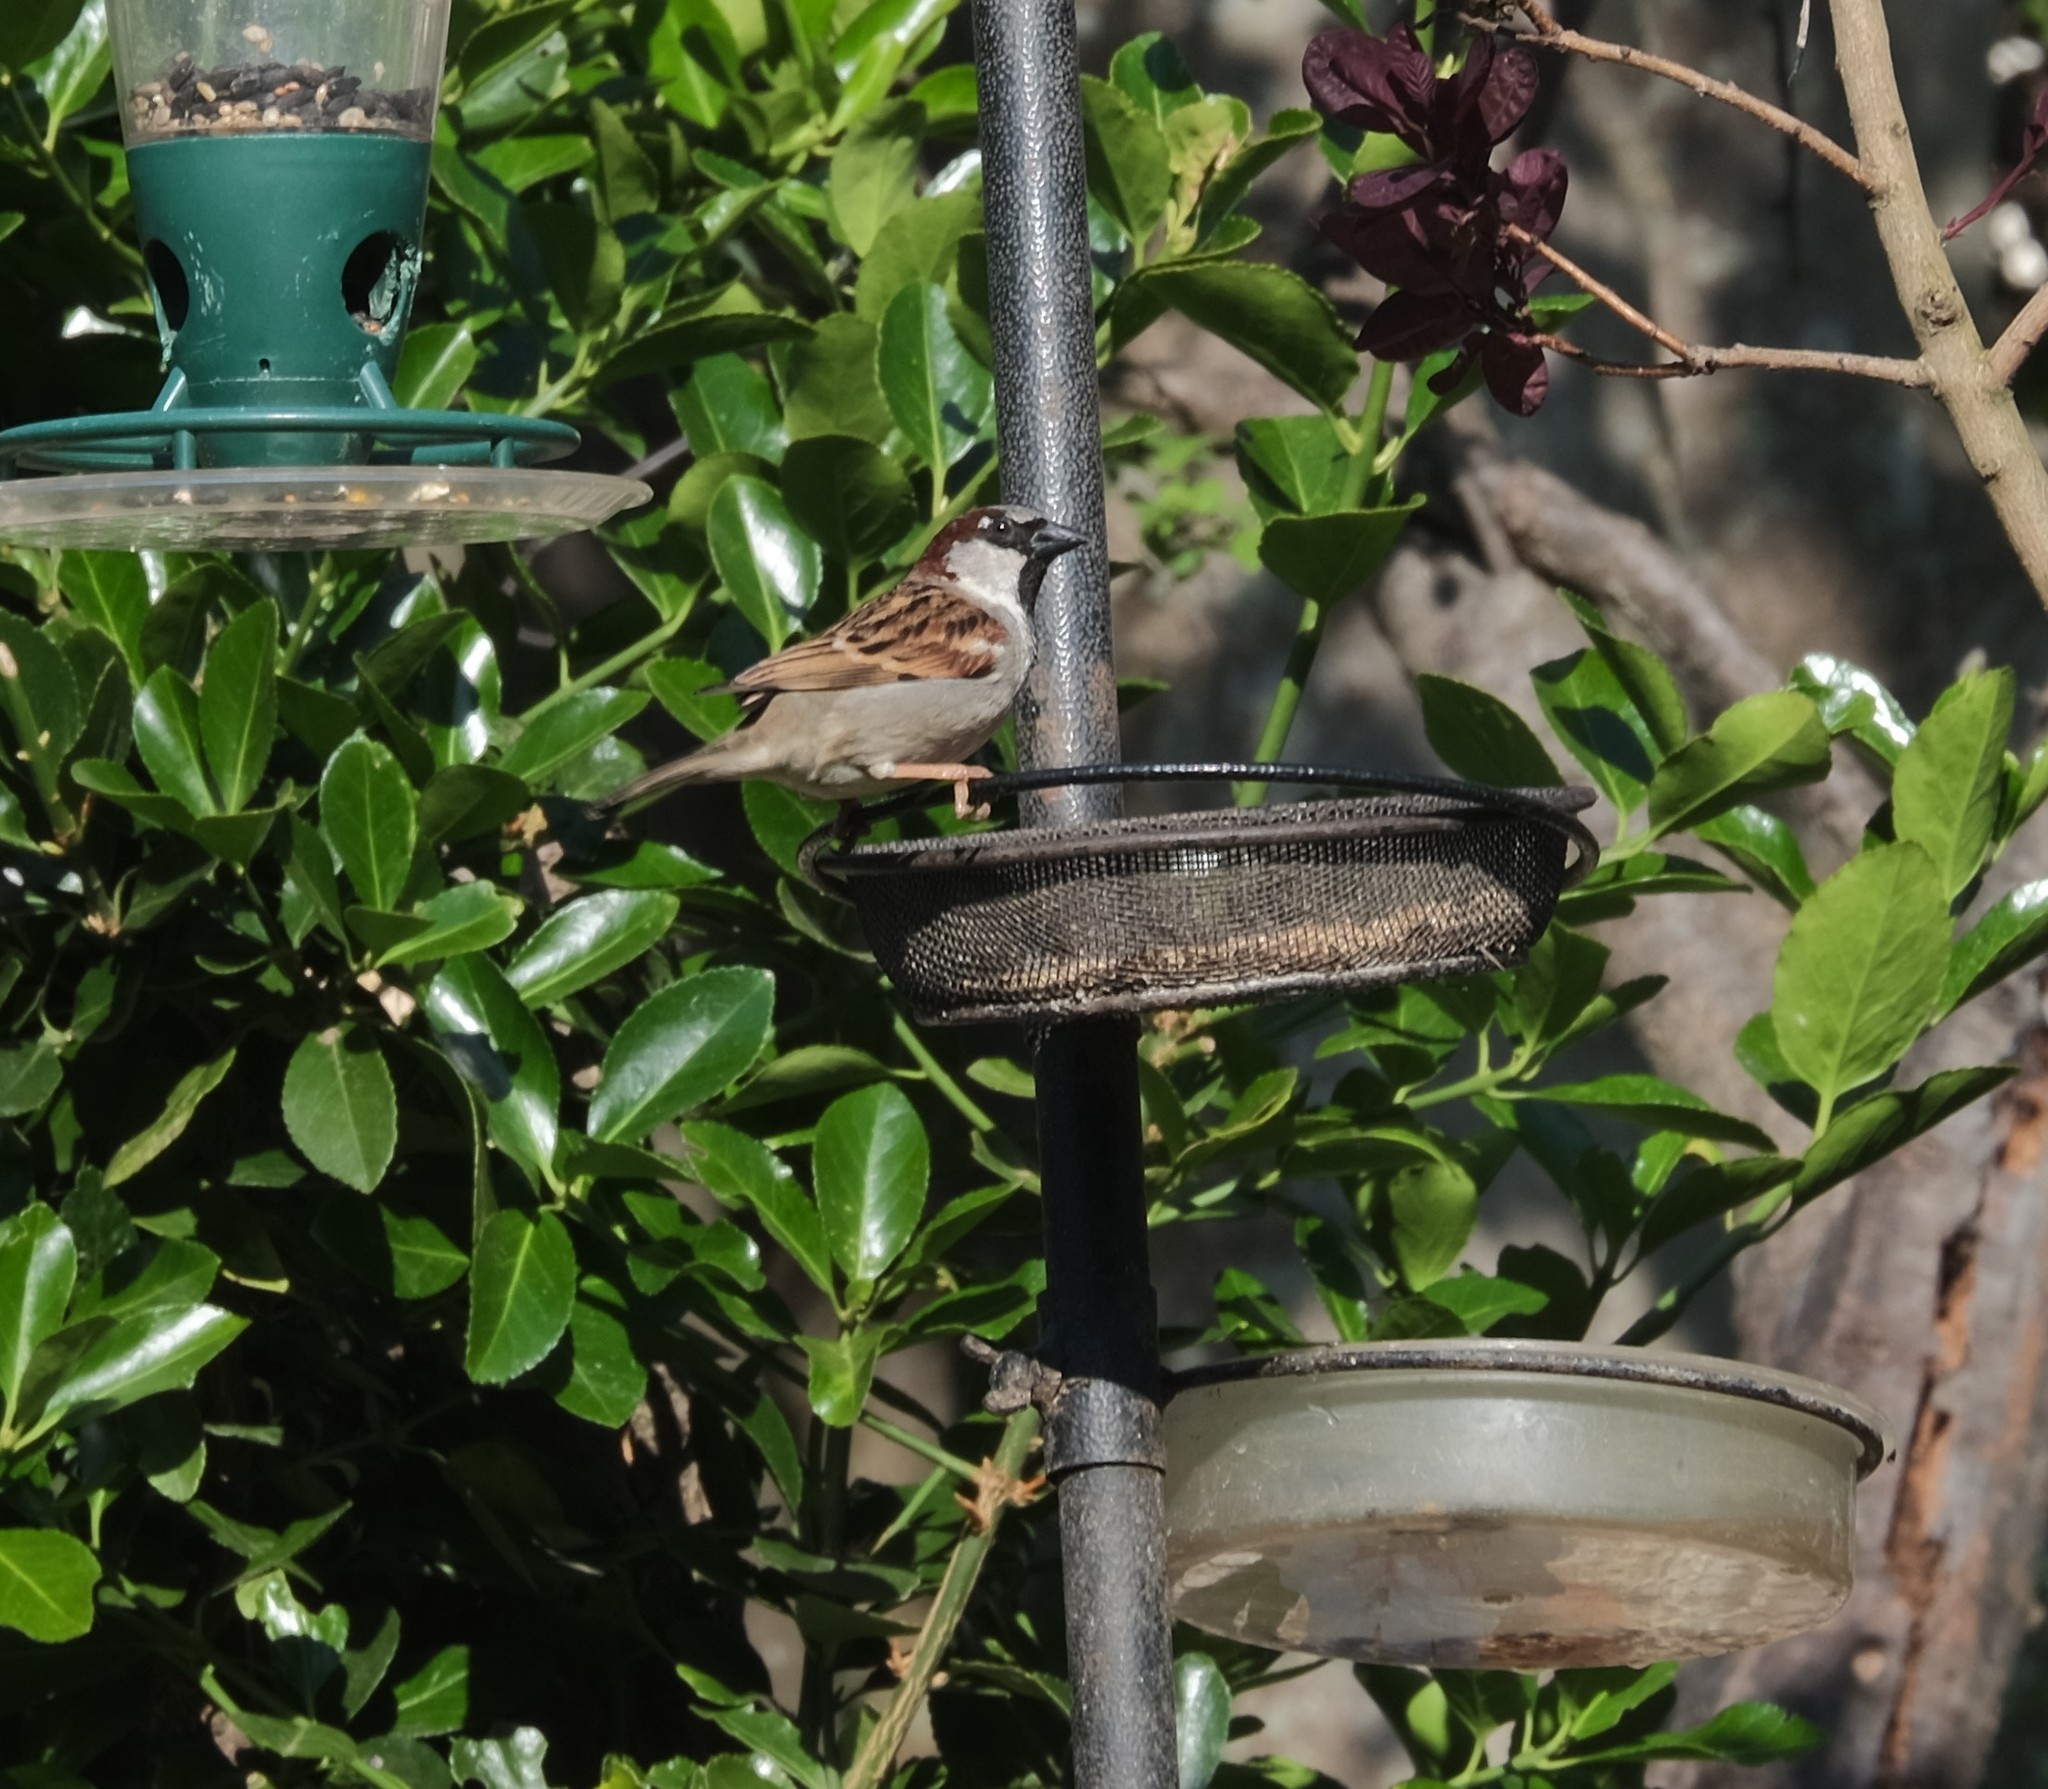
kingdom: Animalia
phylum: Chordata
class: Aves
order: Passeriformes
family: Passeridae
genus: Passer
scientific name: Passer domesticus
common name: House sparrow
